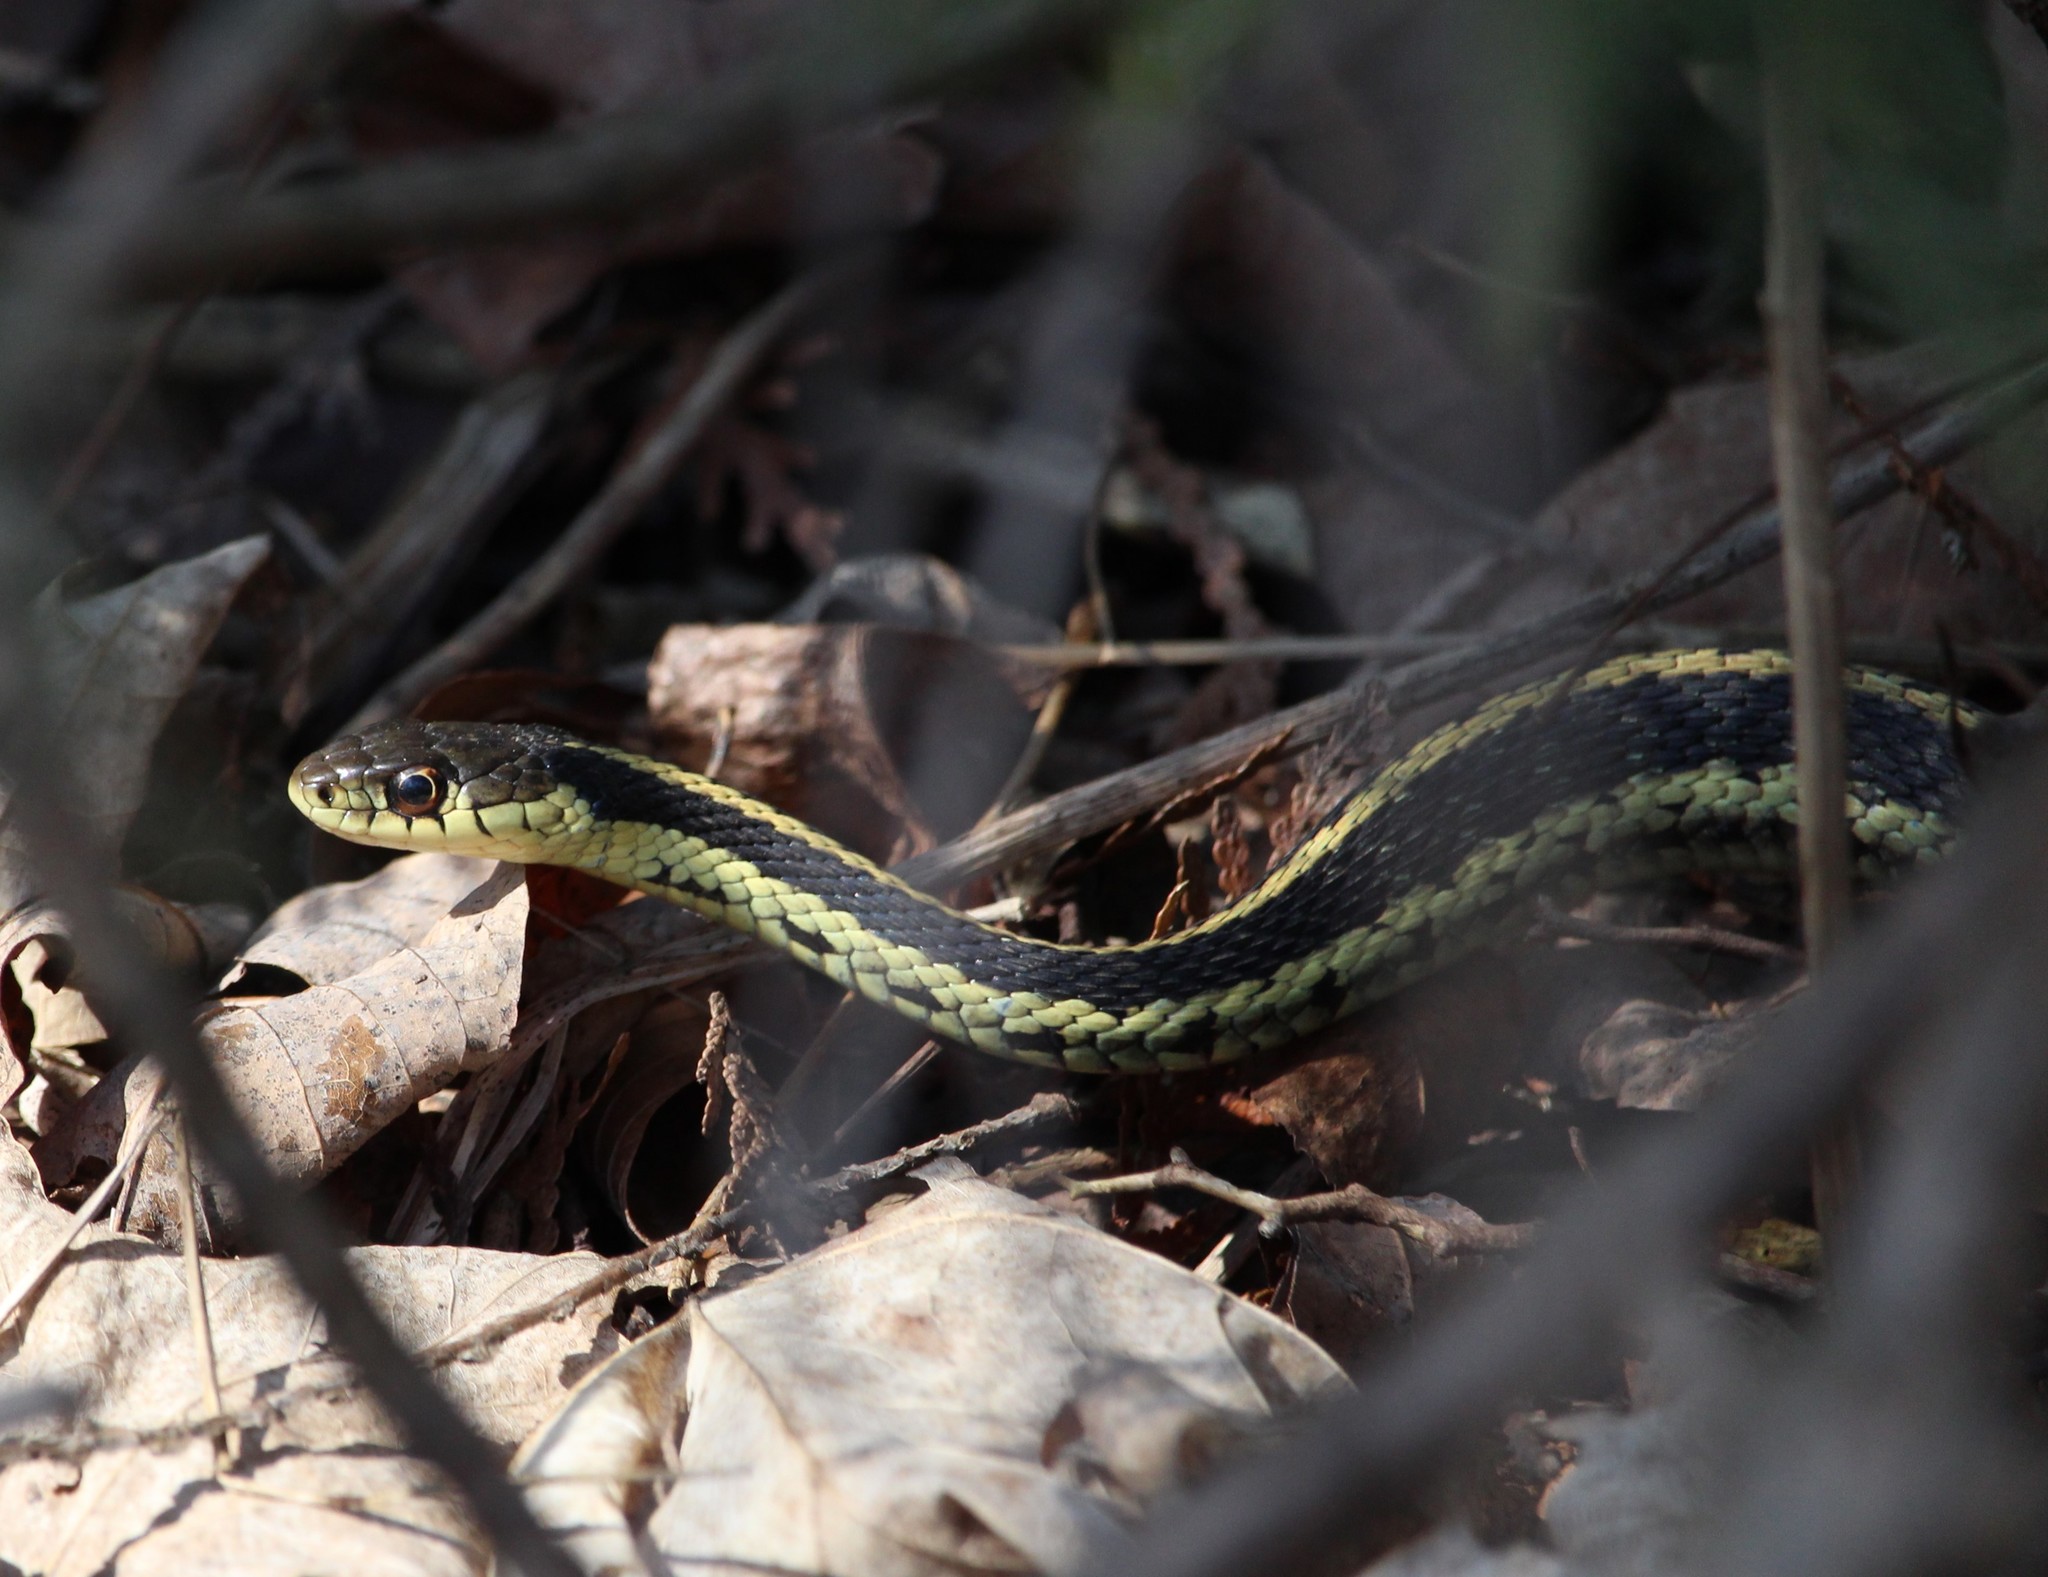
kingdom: Animalia
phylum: Chordata
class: Squamata
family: Colubridae
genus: Thamnophis
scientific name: Thamnophis sirtalis
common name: Common garter snake
